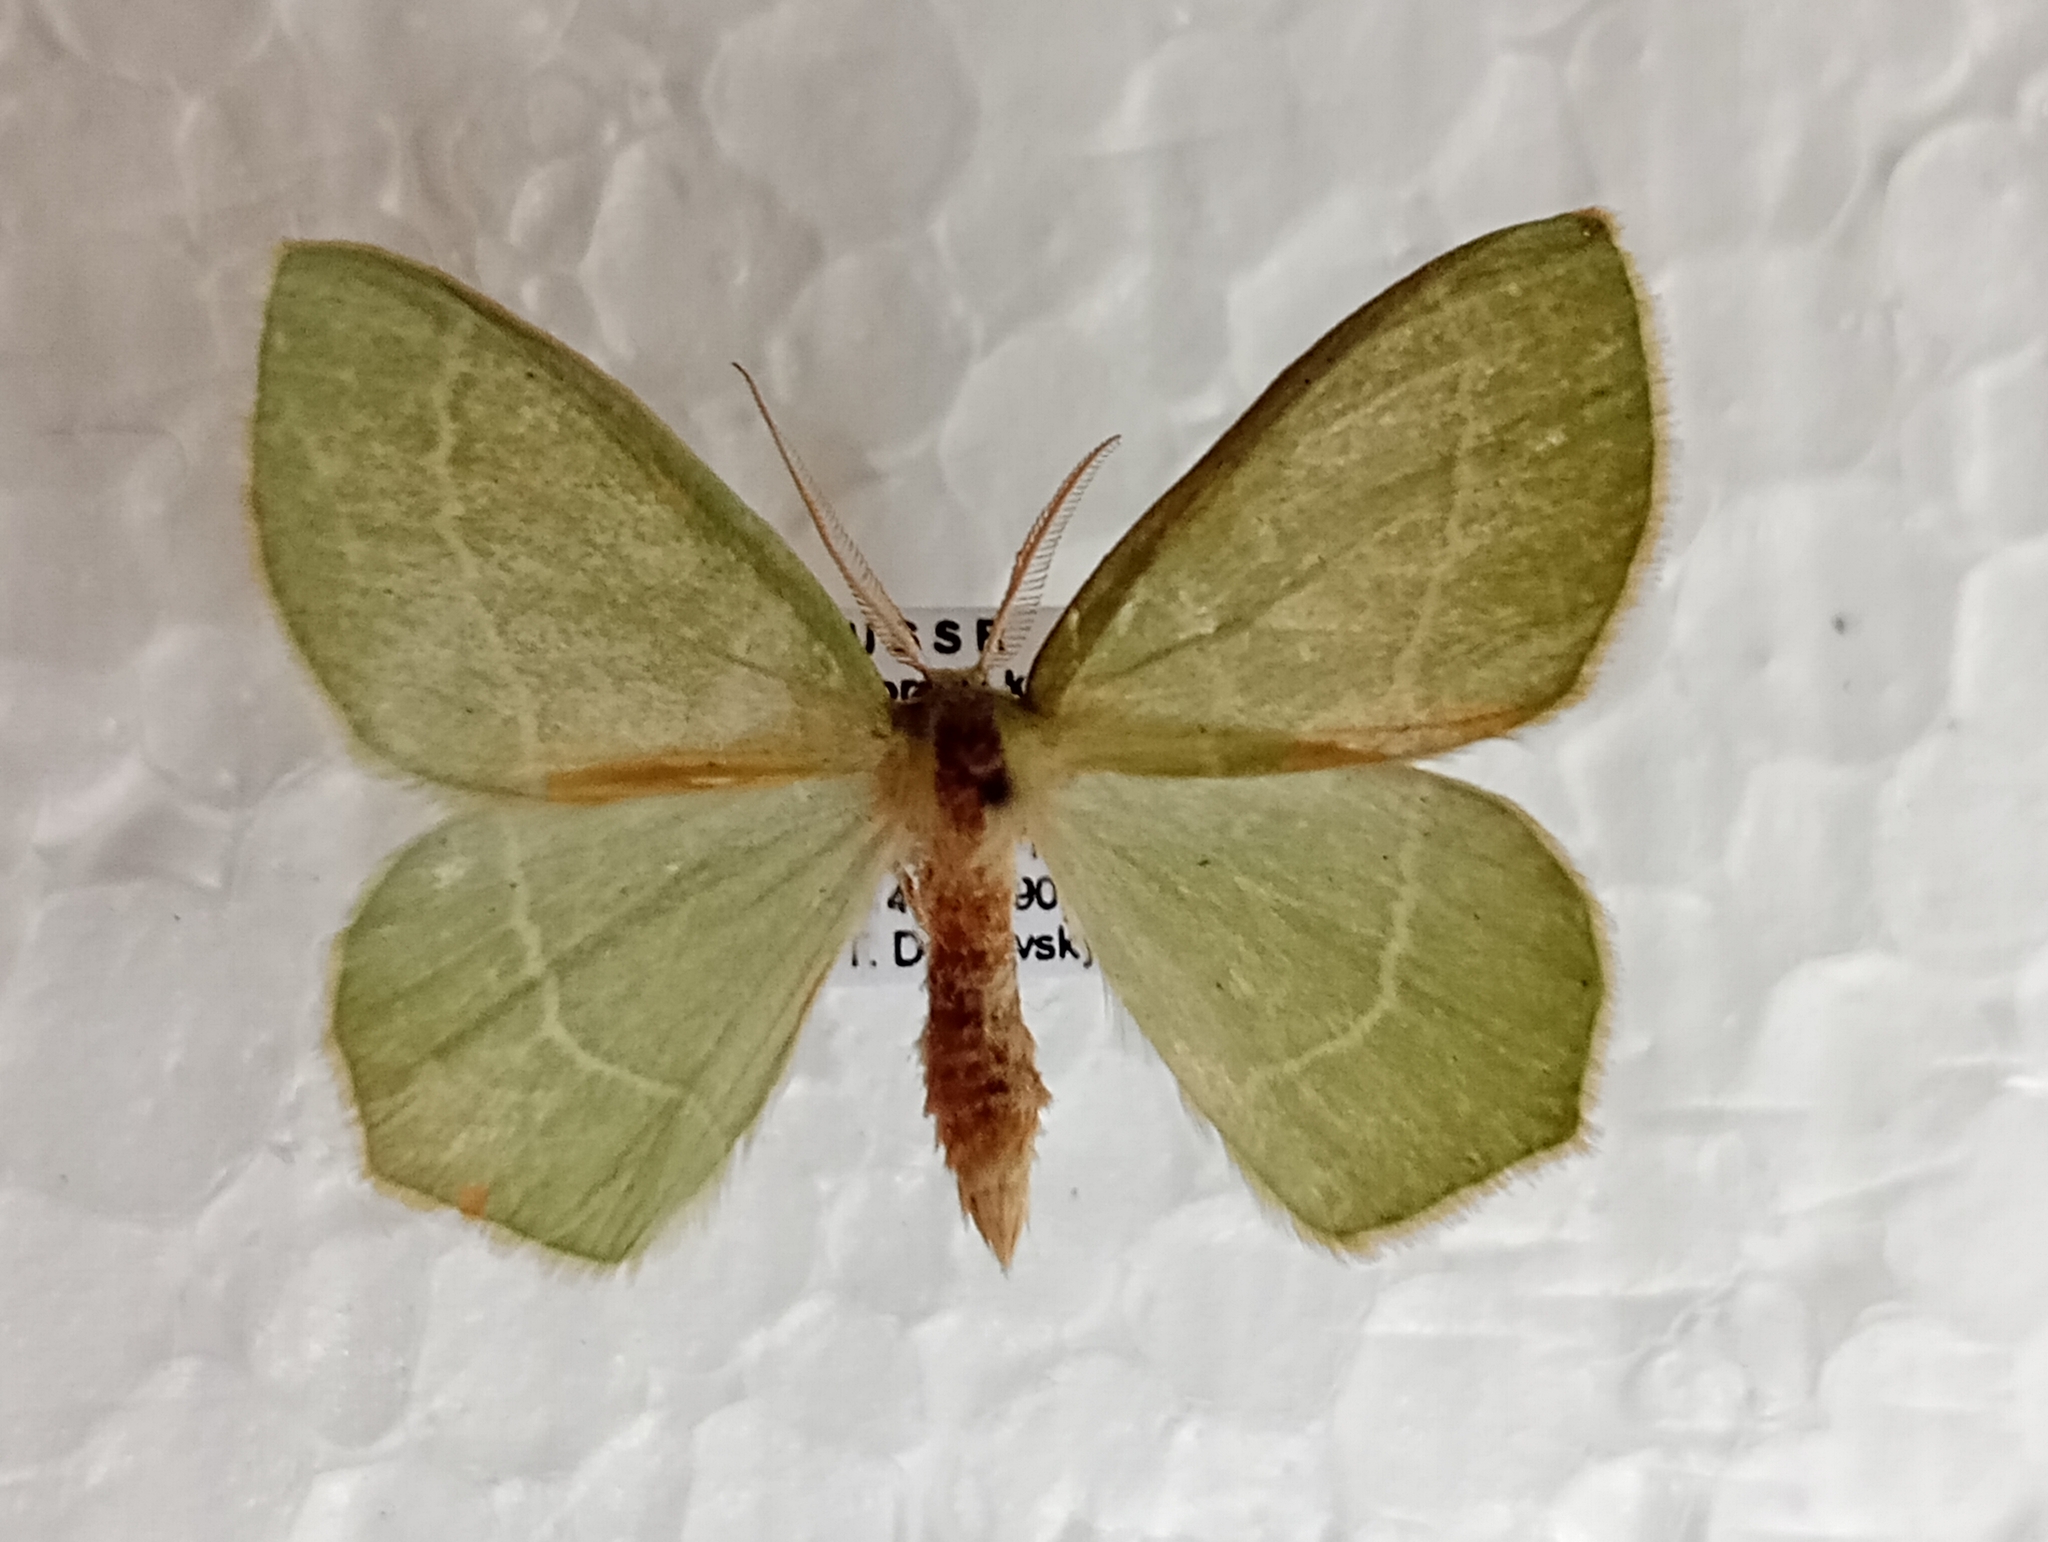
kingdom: Animalia
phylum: Arthropoda
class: Insecta
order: Lepidoptera
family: Geometridae
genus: Hemistola
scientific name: Hemistola zimmermanni
